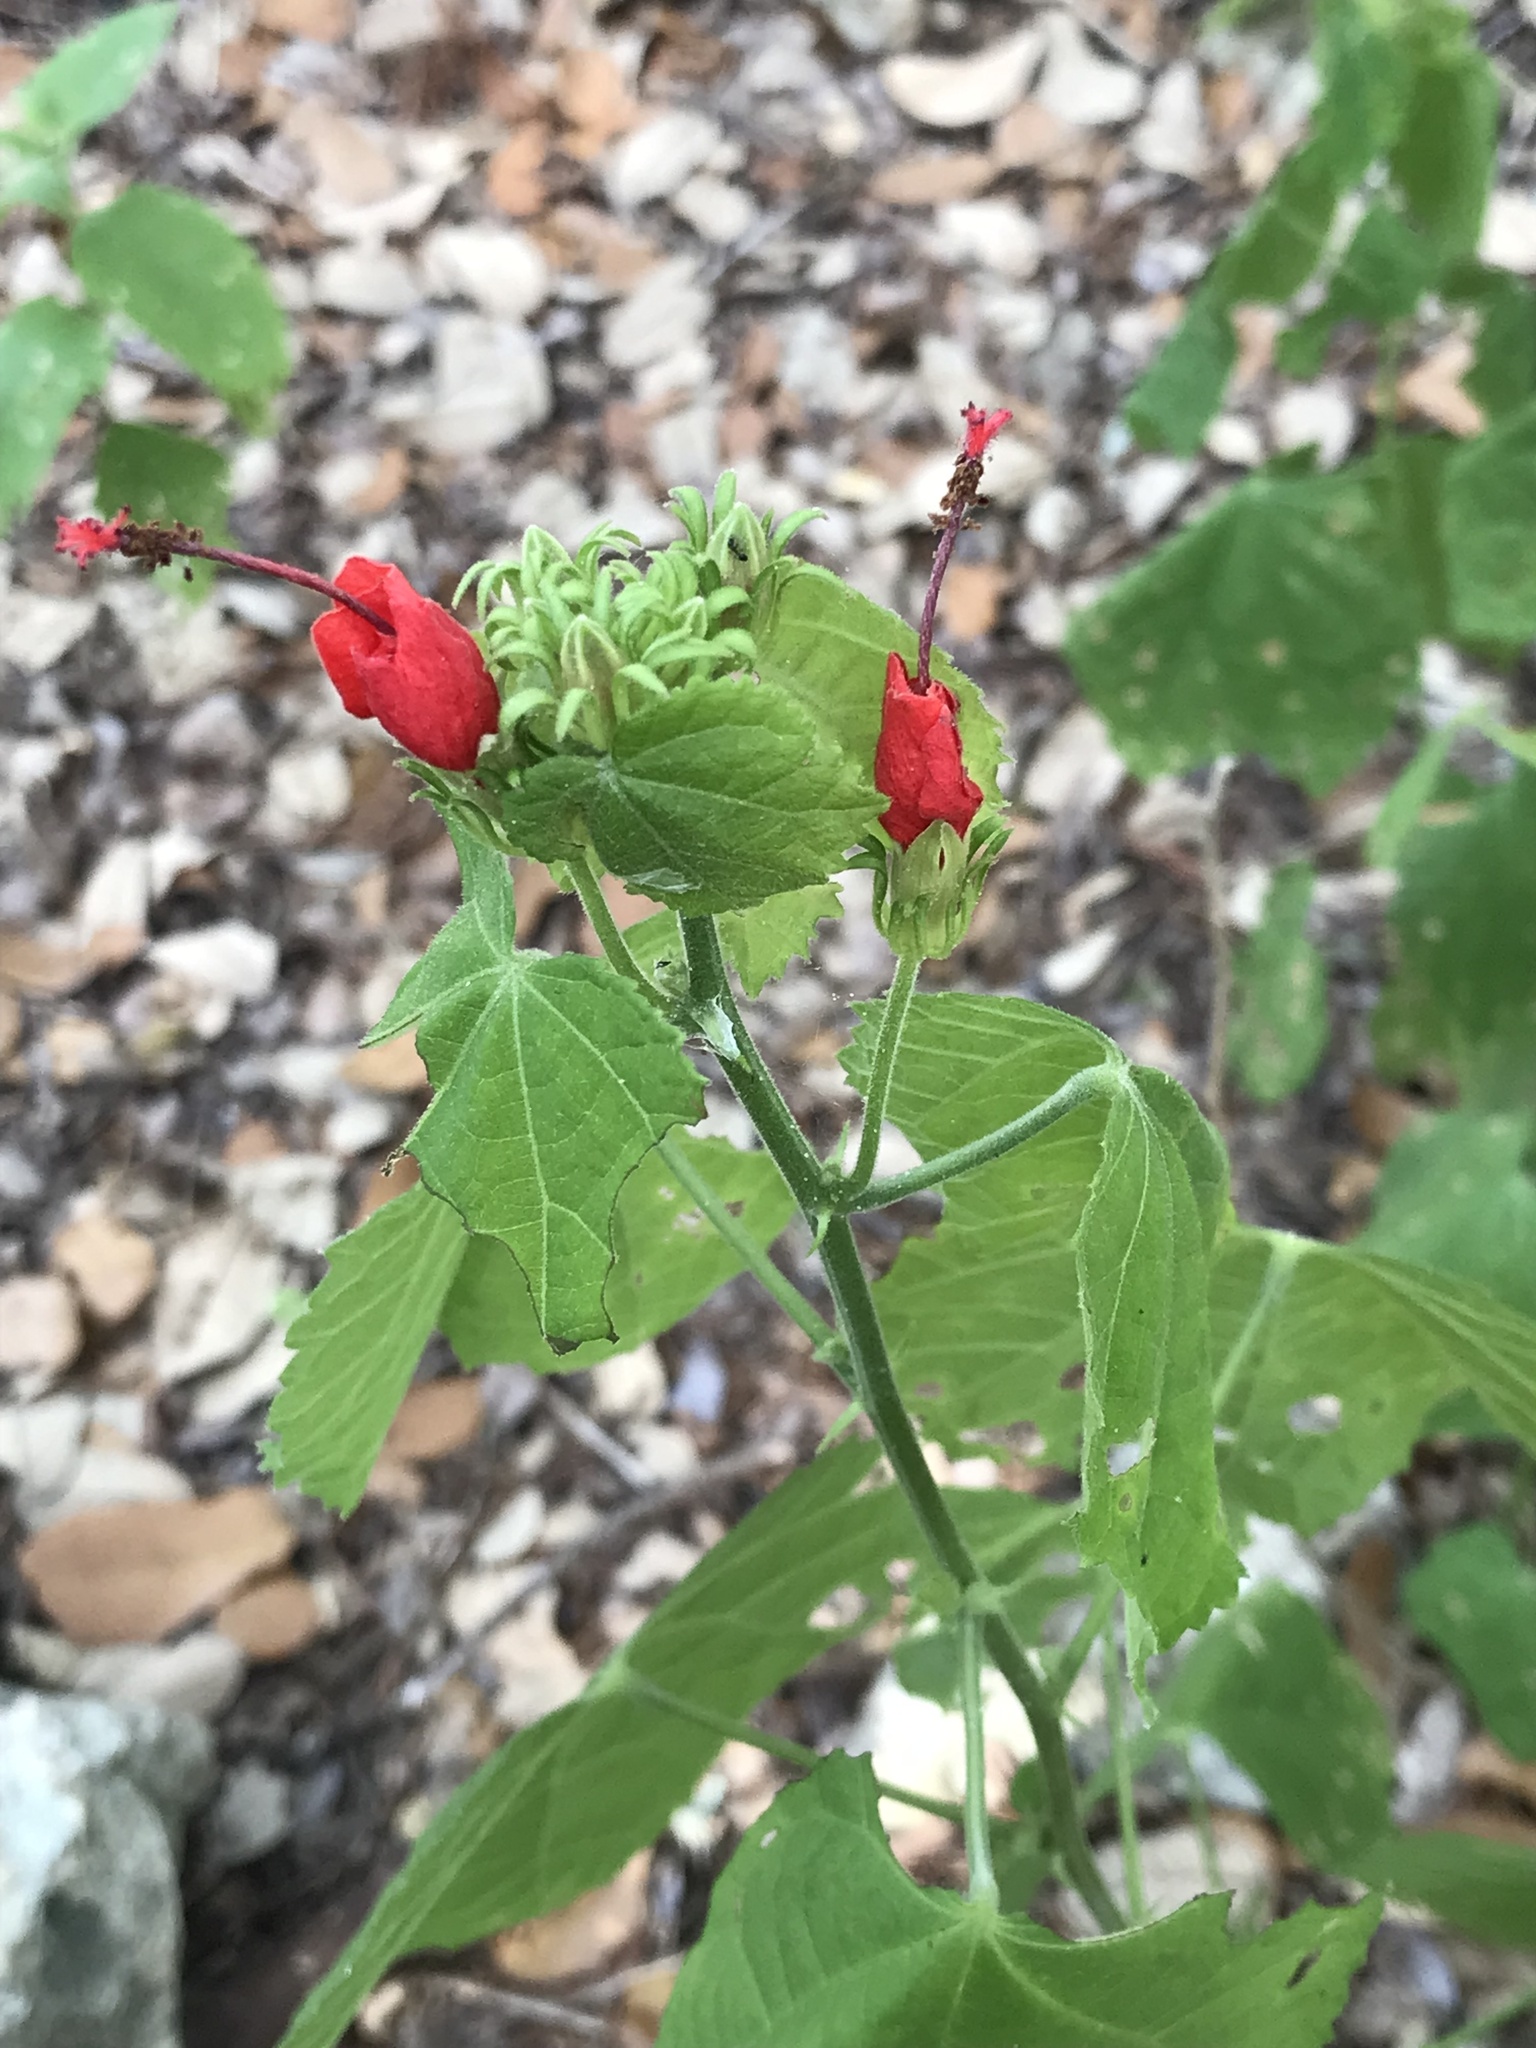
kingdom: Plantae
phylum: Tracheophyta
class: Magnoliopsida
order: Malvales
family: Malvaceae
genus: Malvaviscus
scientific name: Malvaviscus arboreus
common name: Wax mallow
